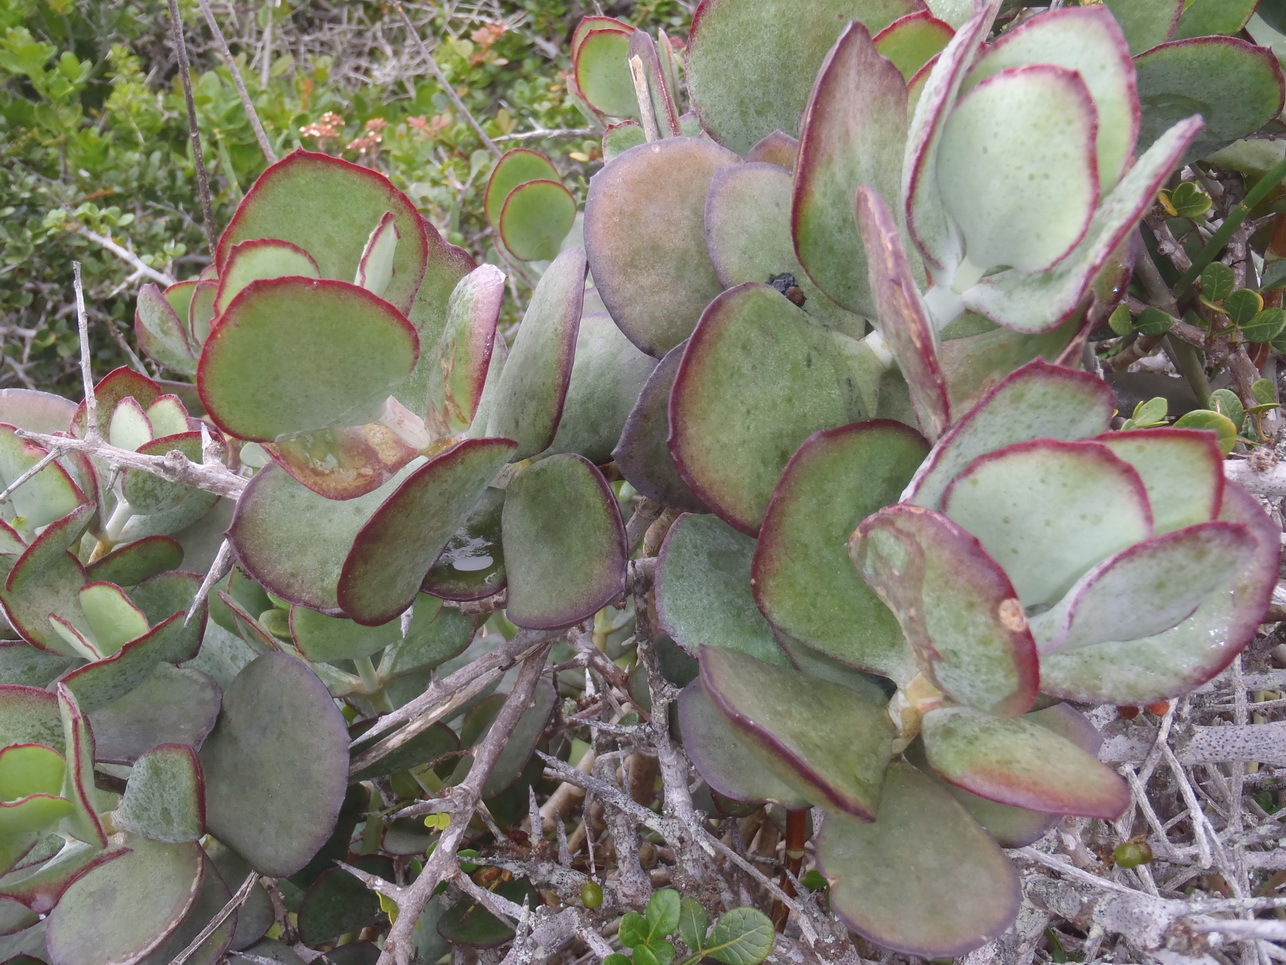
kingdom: Plantae
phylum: Tracheophyta
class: Magnoliopsida
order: Saxifragales
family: Crassulaceae
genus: Cotyledon
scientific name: Cotyledon orbiculata
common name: Pig's ear
